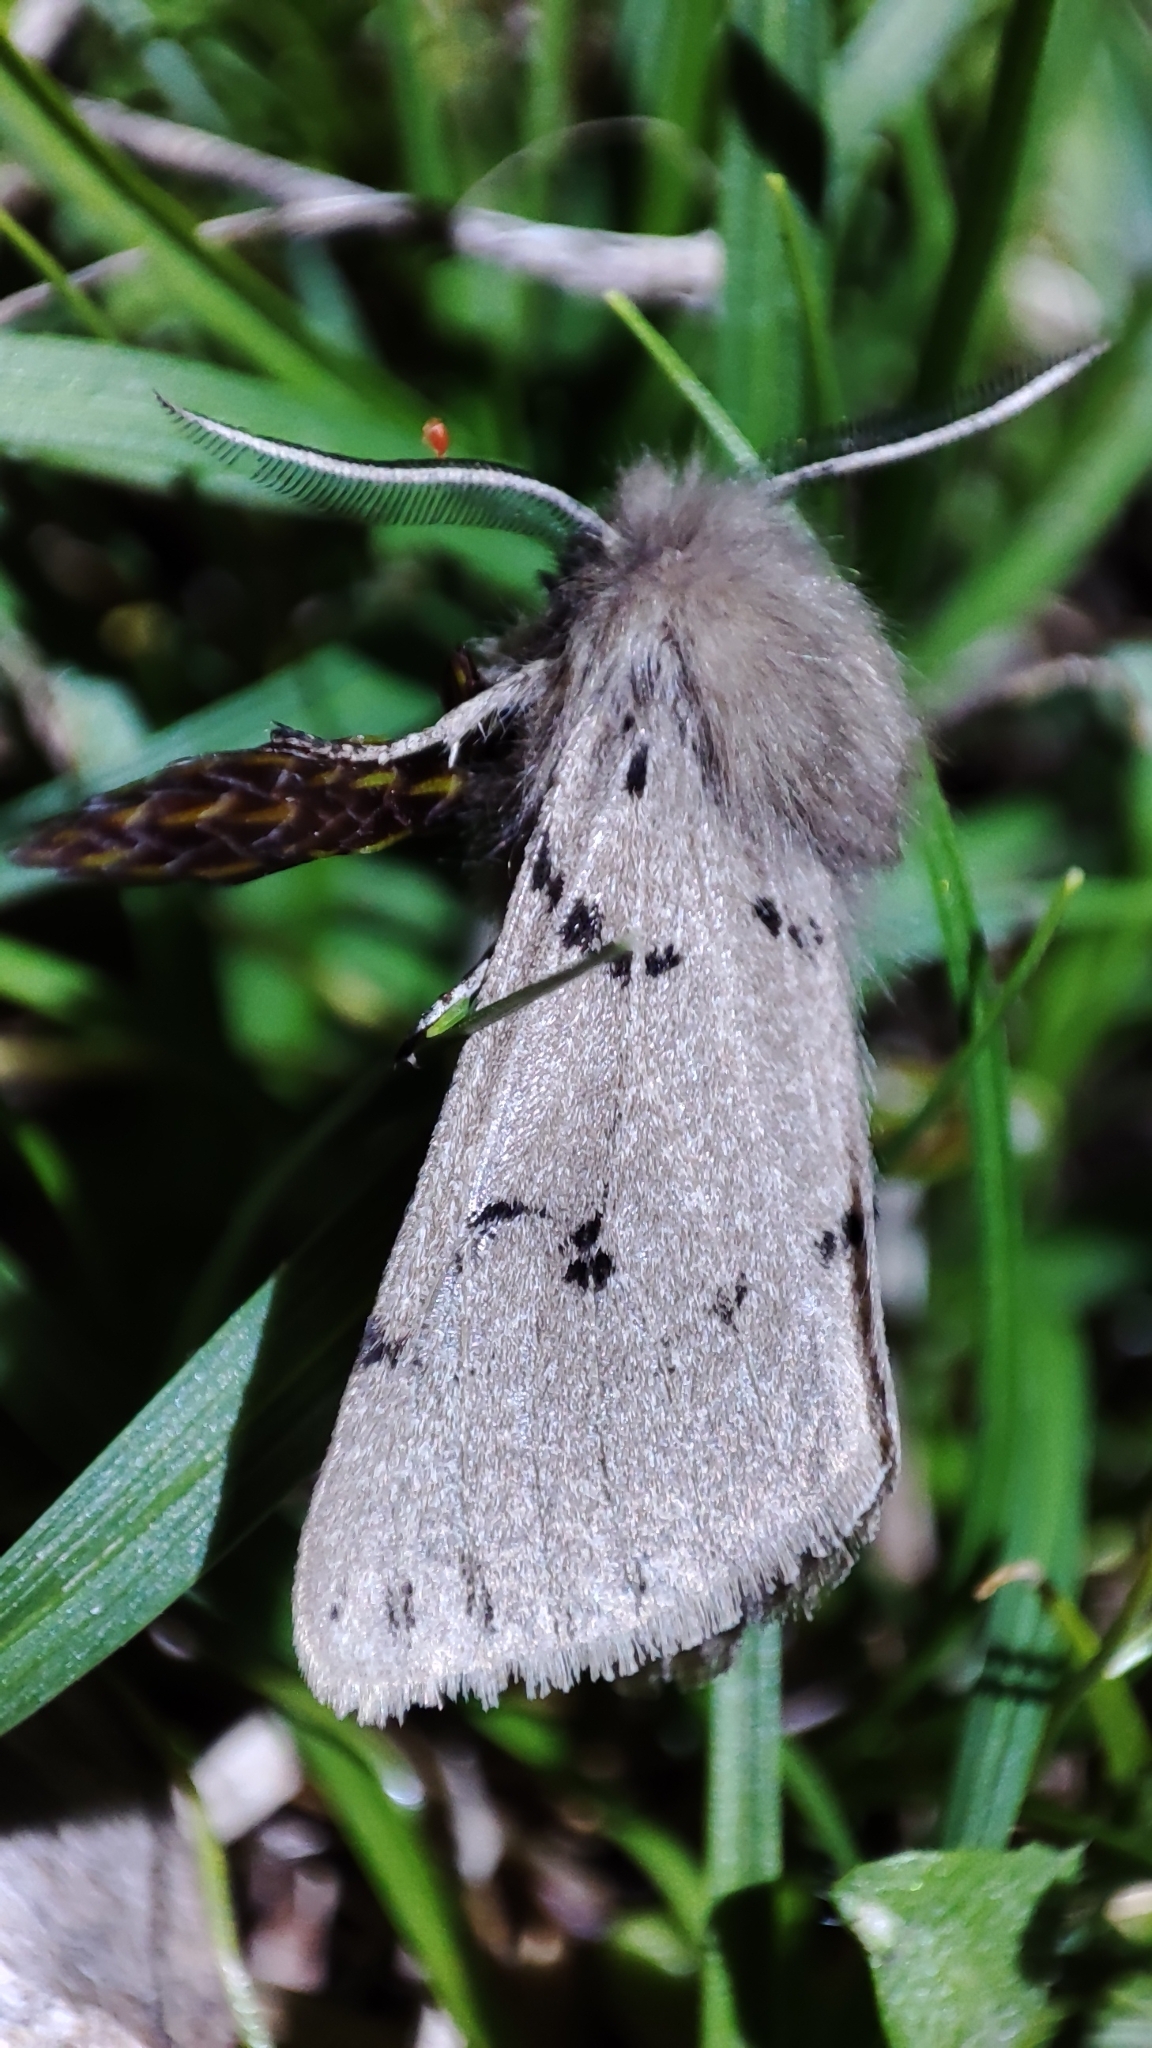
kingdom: Animalia
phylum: Arthropoda
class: Insecta
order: Lepidoptera
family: Erebidae
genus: Eudiaphora
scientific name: Eudiaphora
